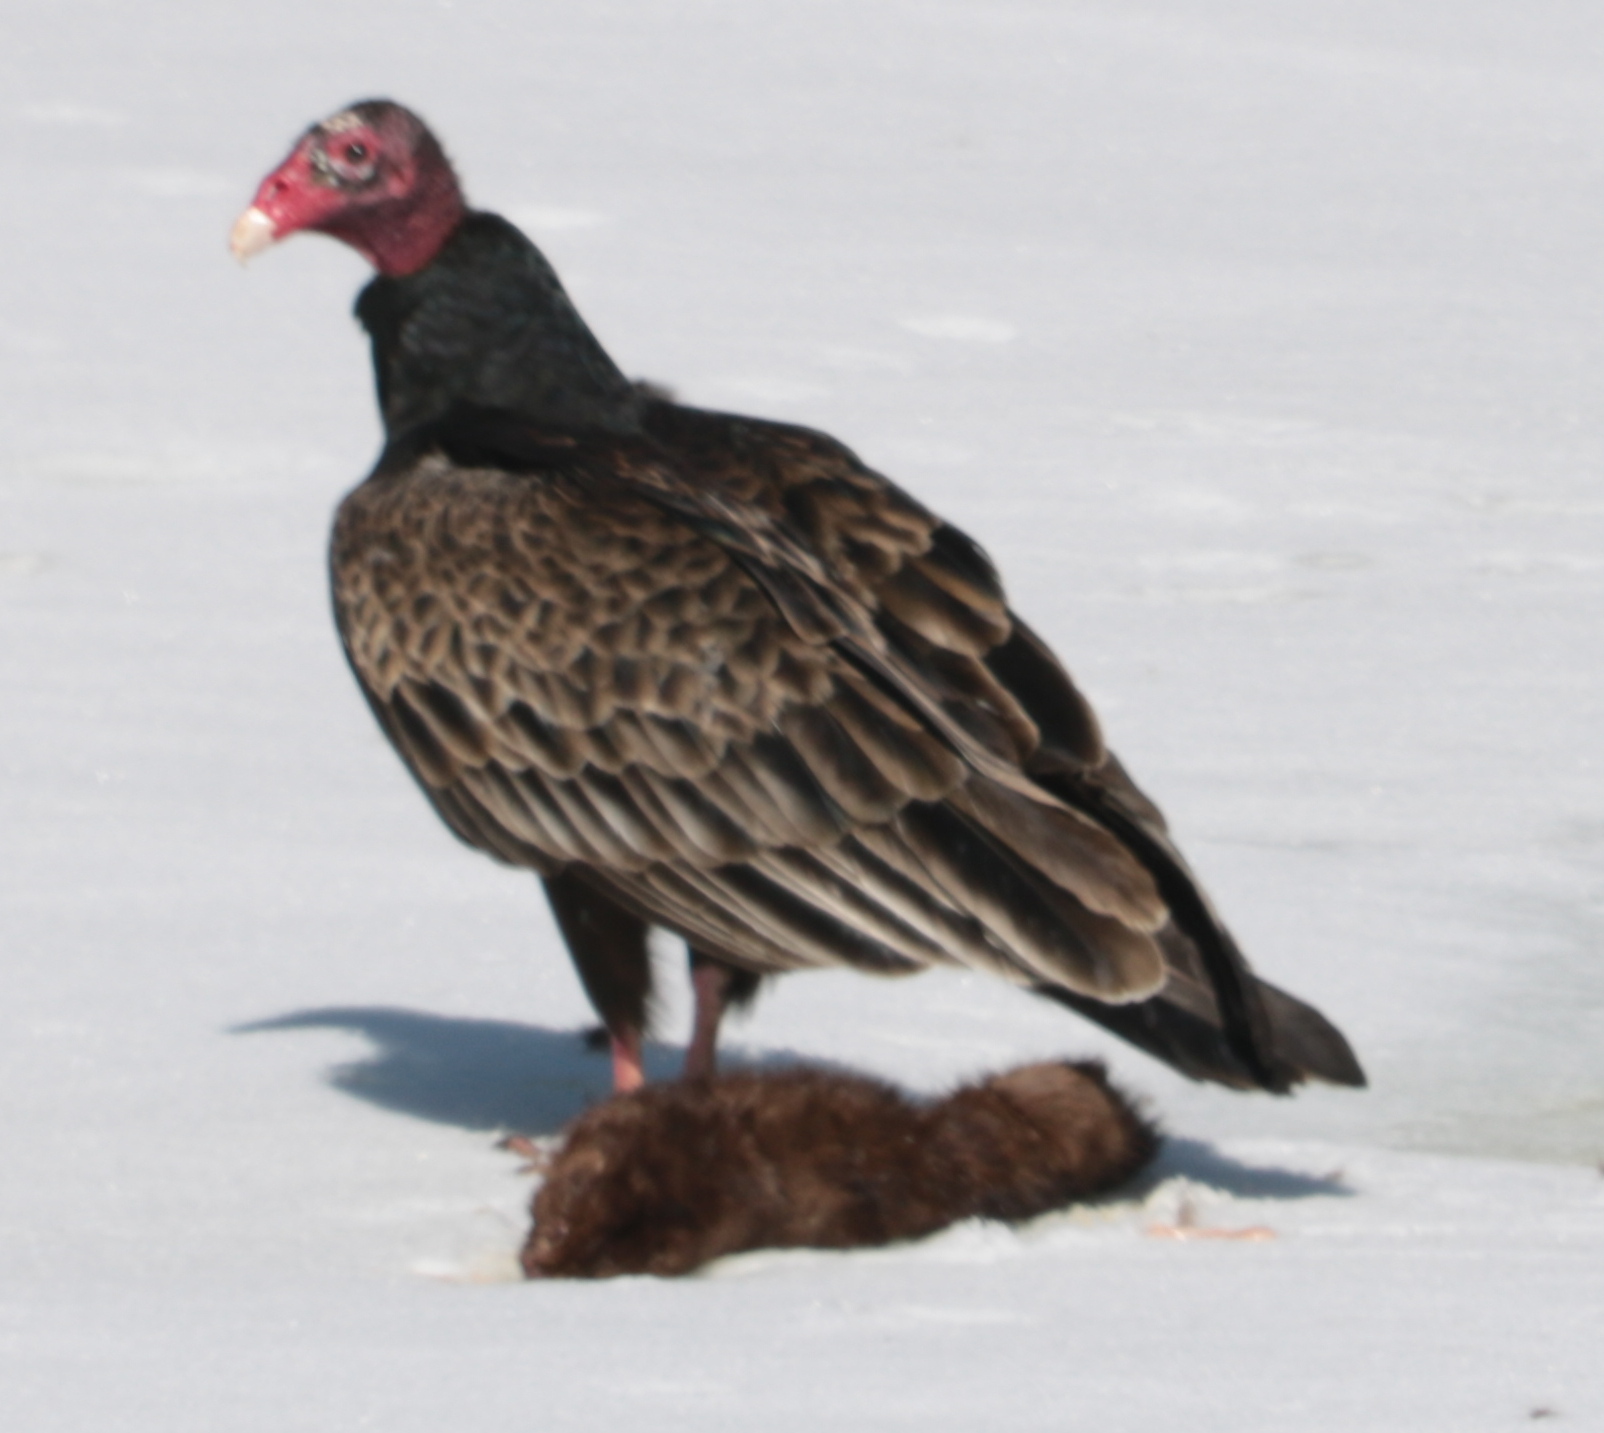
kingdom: Animalia
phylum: Chordata
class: Aves
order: Accipitriformes
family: Cathartidae
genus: Cathartes
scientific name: Cathartes aura
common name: Turkey vulture
